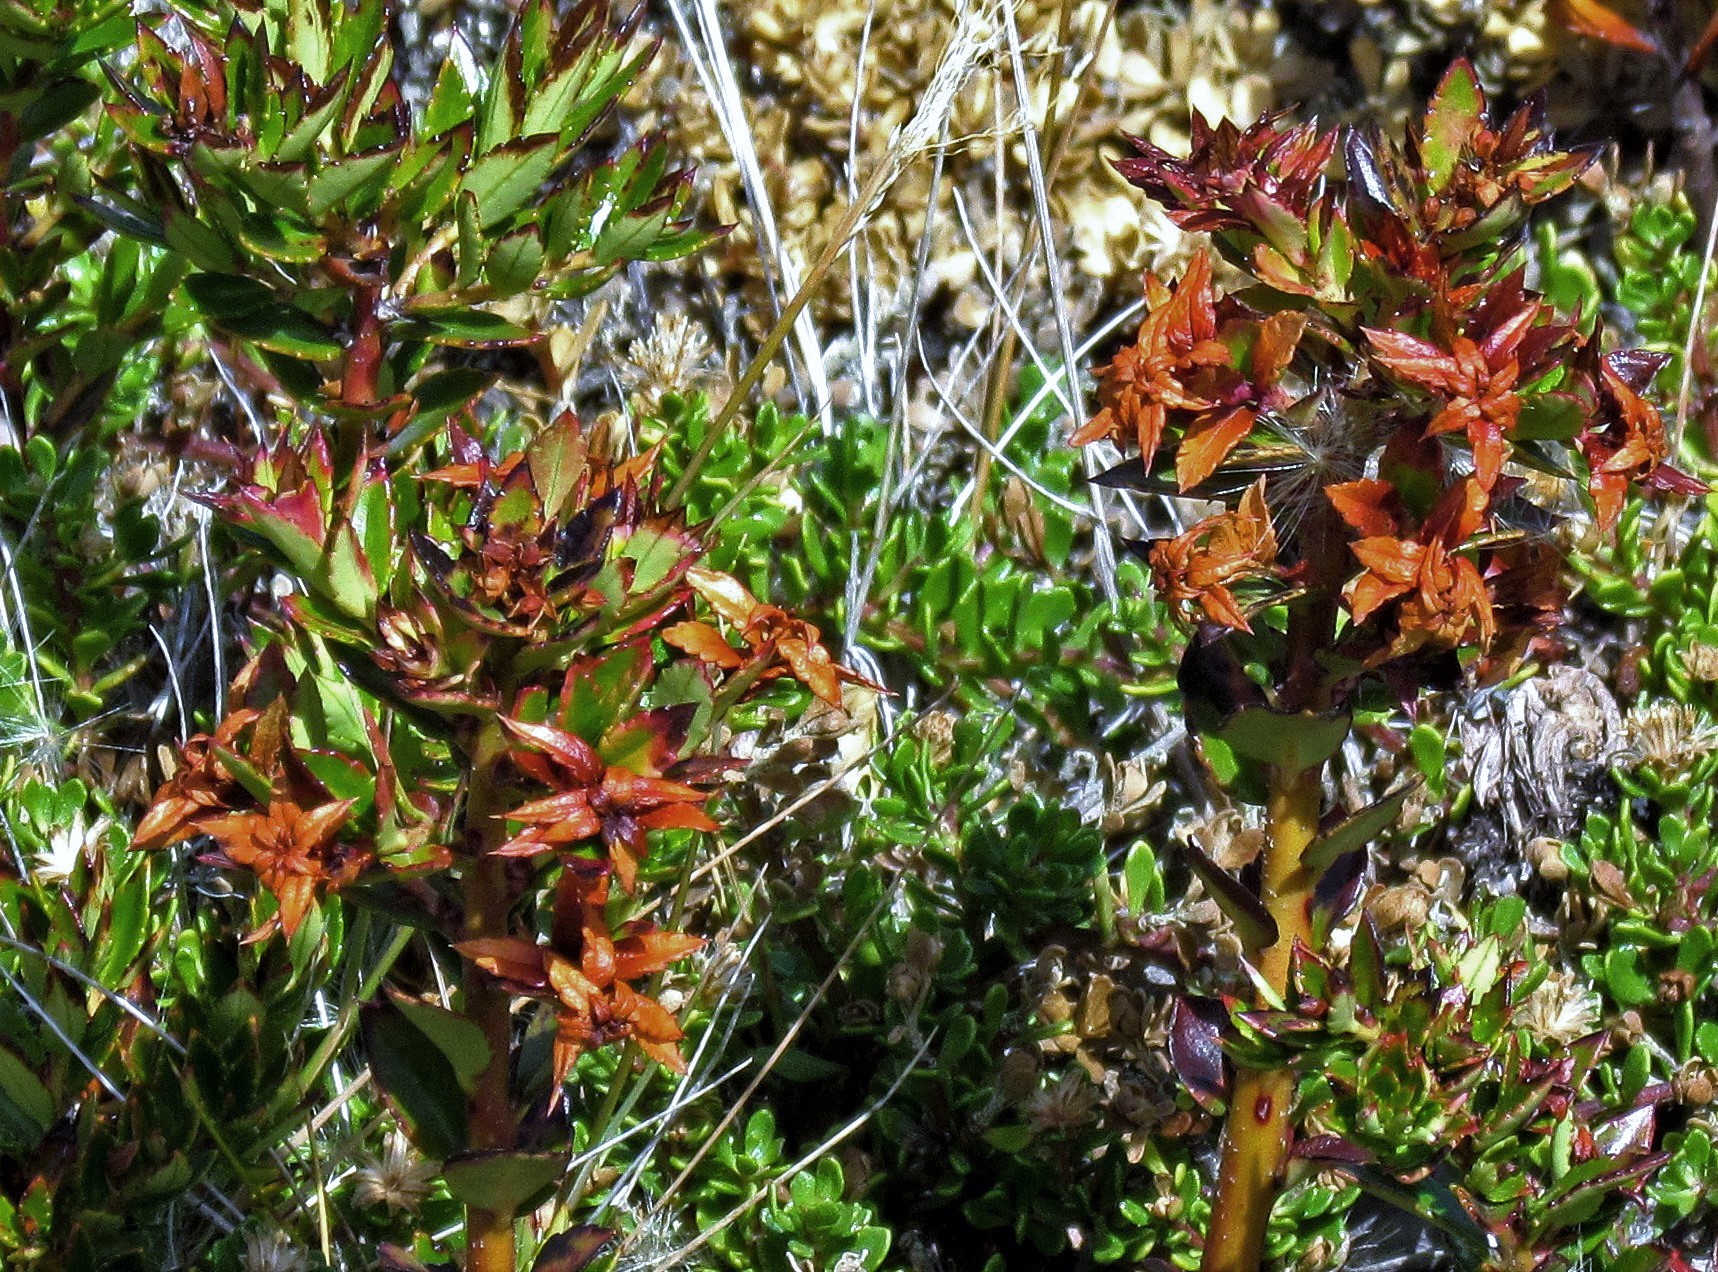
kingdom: Plantae
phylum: Tracheophyta
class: Magnoliopsida
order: Ericales
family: Ericaceae
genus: Gaultheria
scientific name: Gaultheria mucronata
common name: Prickly heath
